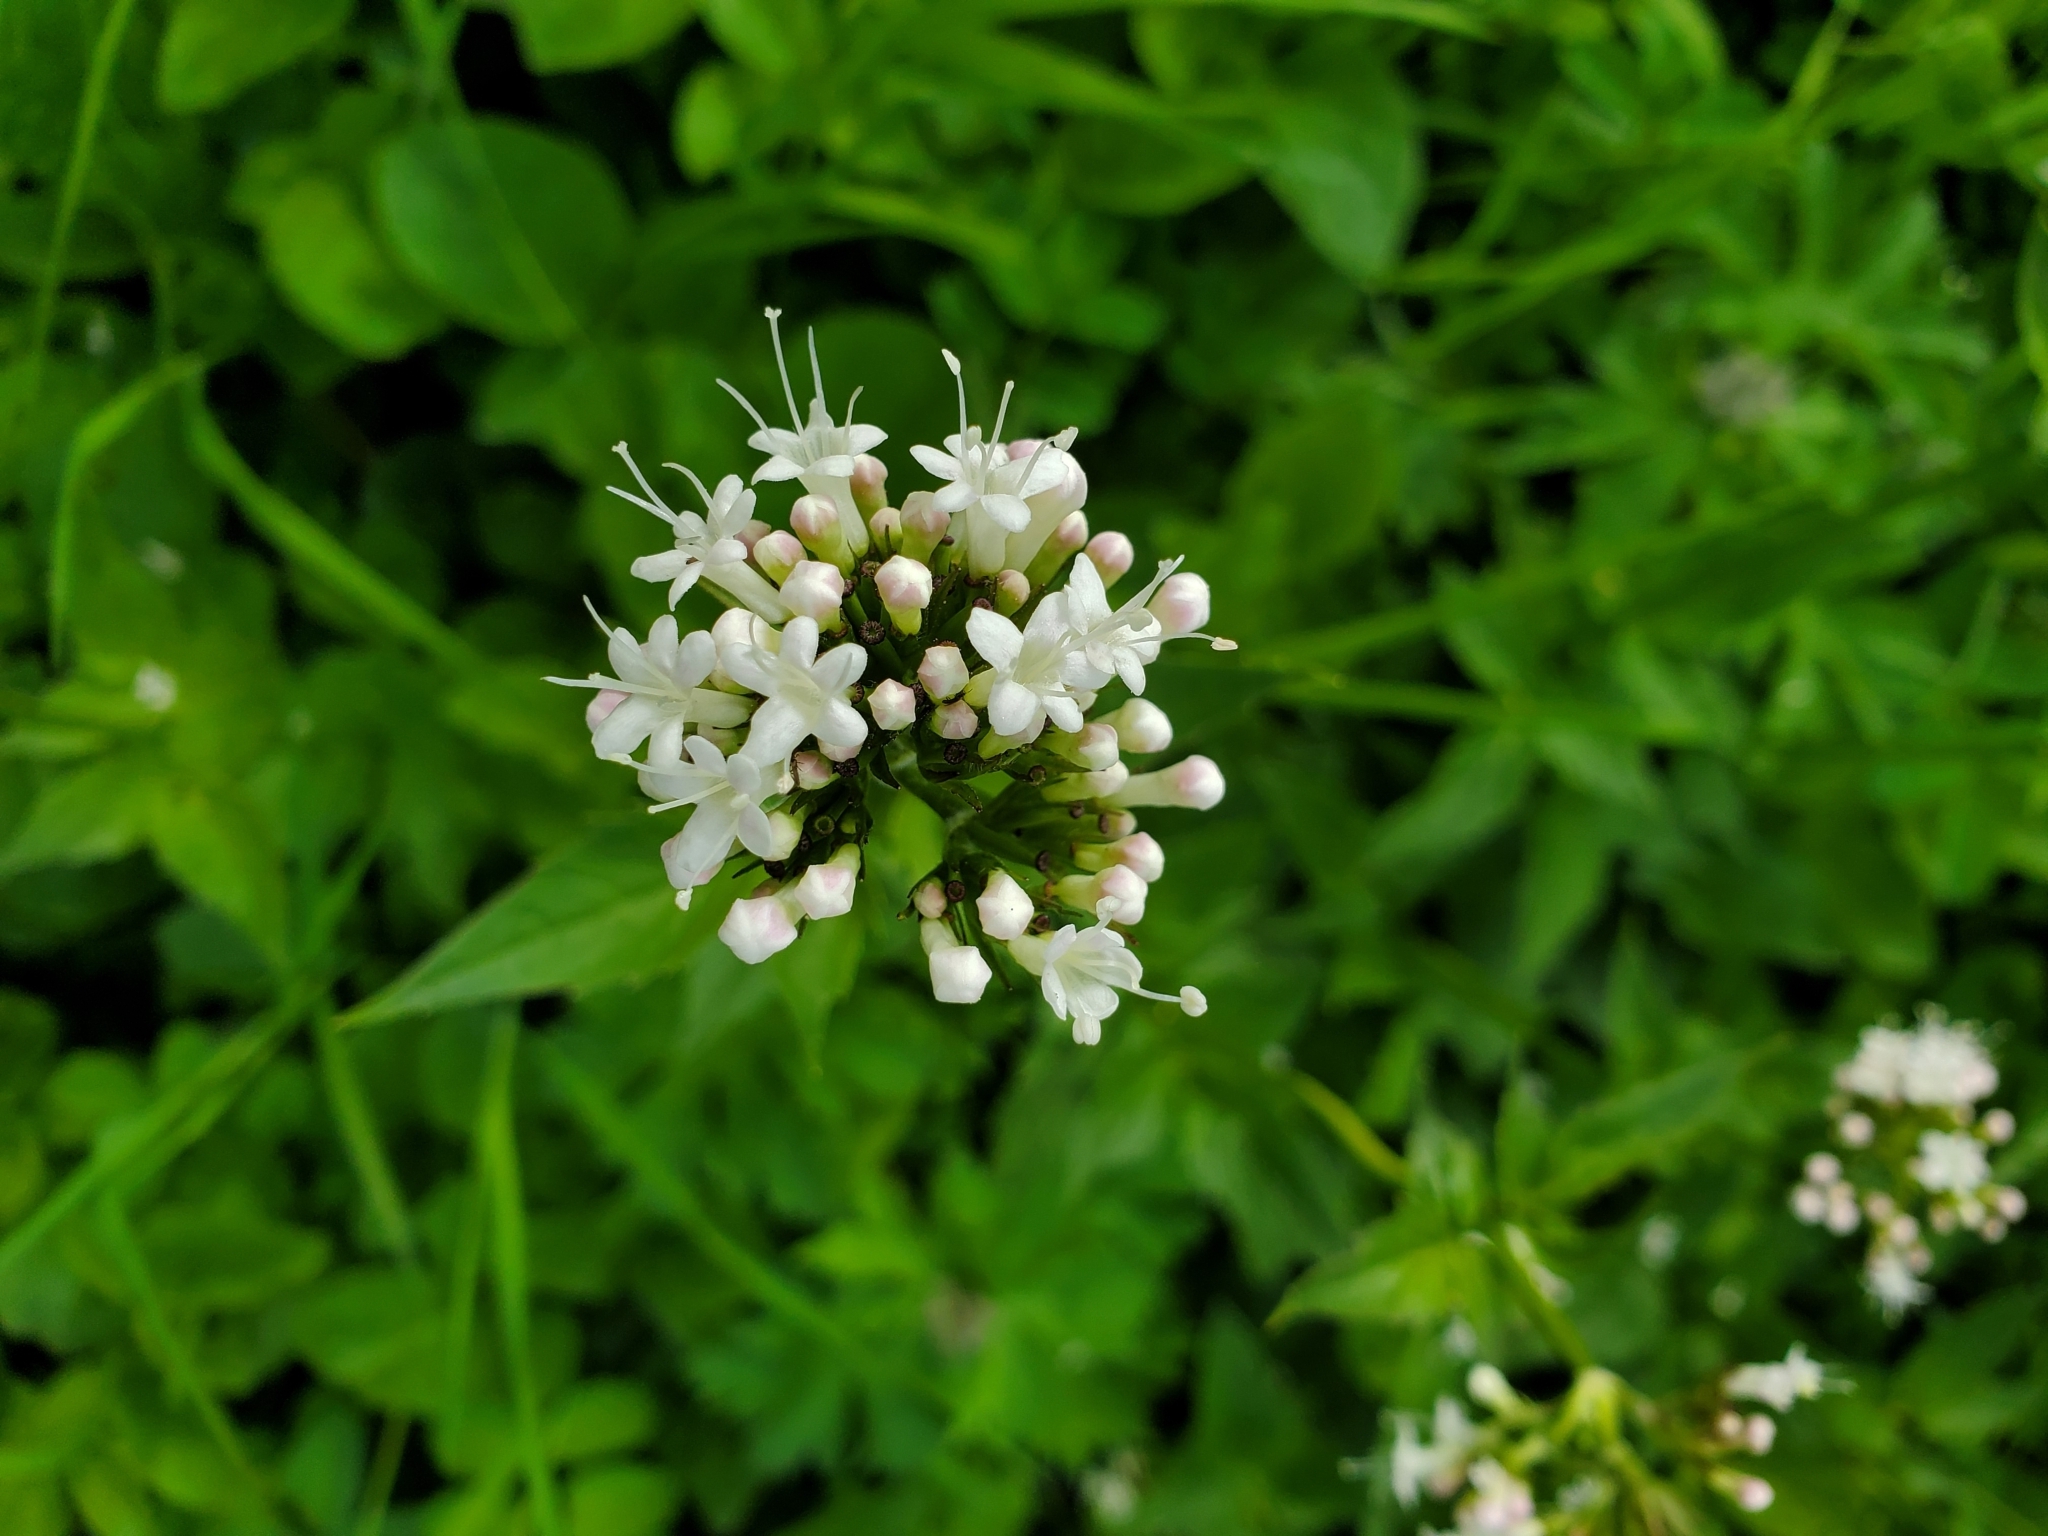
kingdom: Plantae
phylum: Tracheophyta
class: Magnoliopsida
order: Dipsacales
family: Caprifoliaceae
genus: Valeriana
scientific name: Valeriana sitchensis
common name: Pacific valerian
